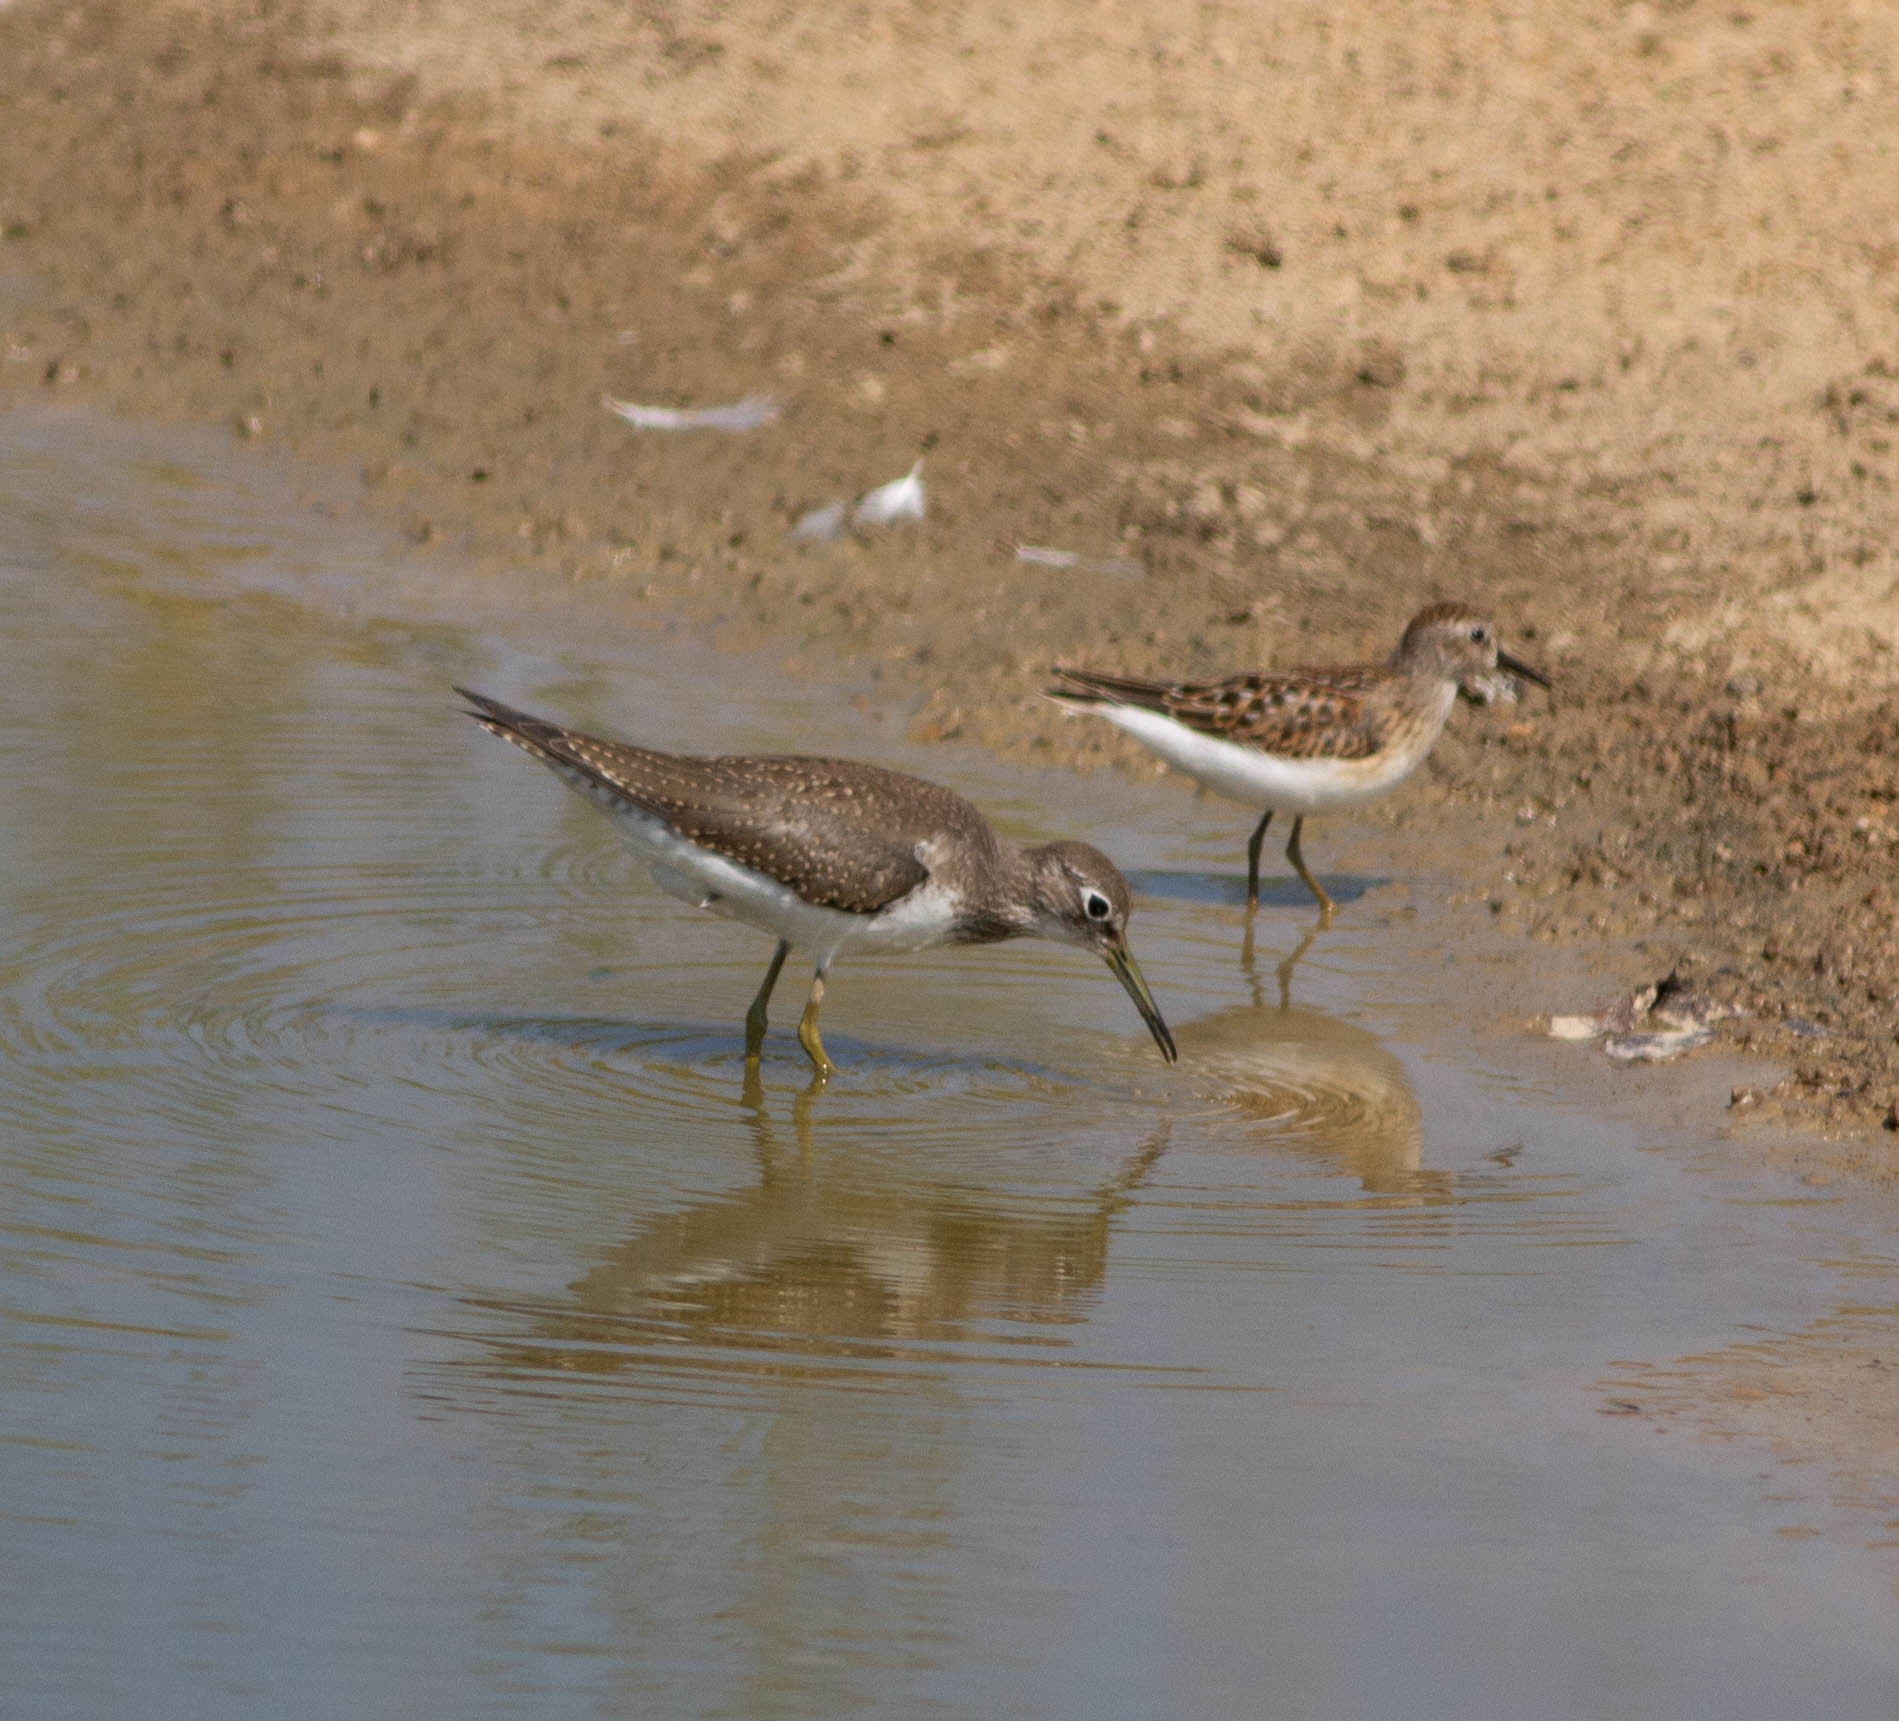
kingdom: Animalia
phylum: Chordata
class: Aves
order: Charadriiformes
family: Scolopacidae
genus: Tringa
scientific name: Tringa solitaria
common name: Solitary sandpiper
